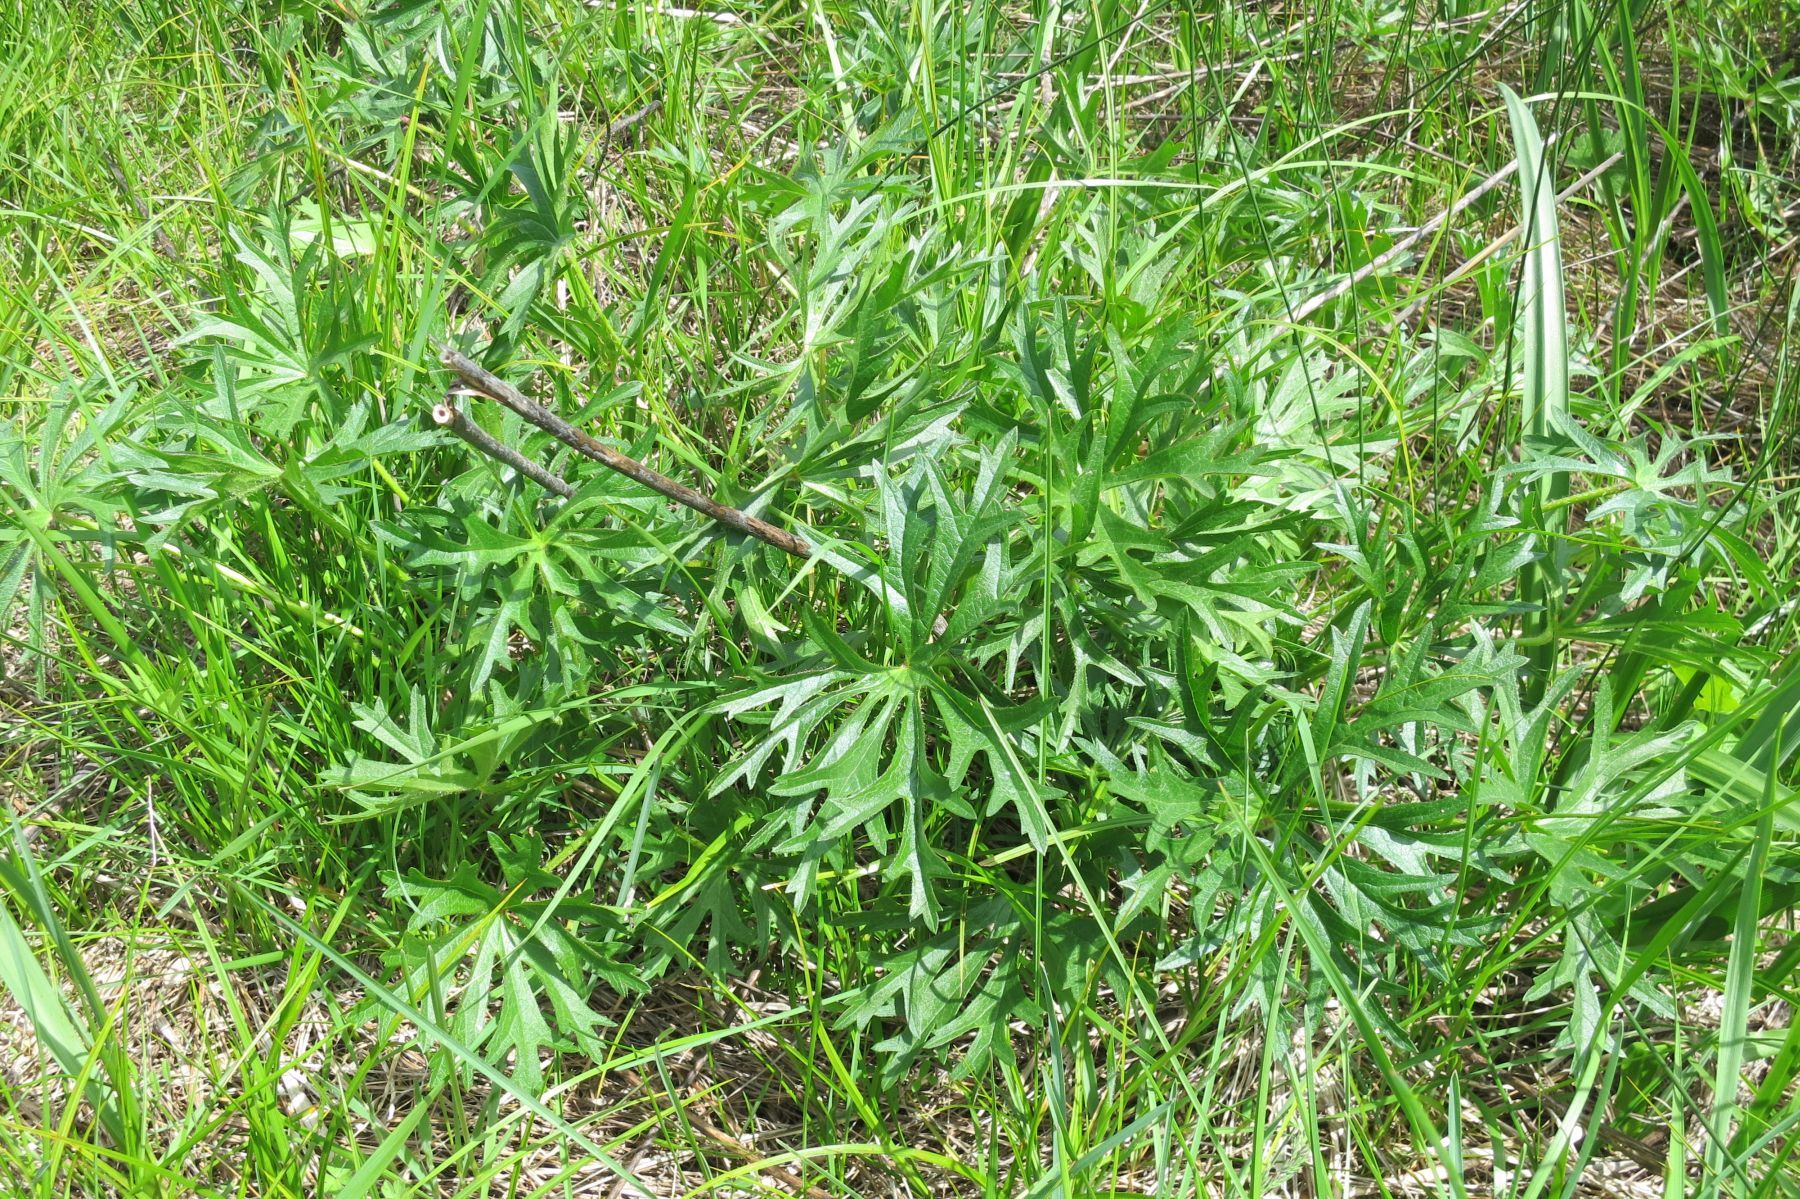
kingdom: Plantae
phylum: Tracheophyta
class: Magnoliopsida
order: Malvales
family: Malvaceae
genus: Sidalcea
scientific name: Sidalcea campestris
